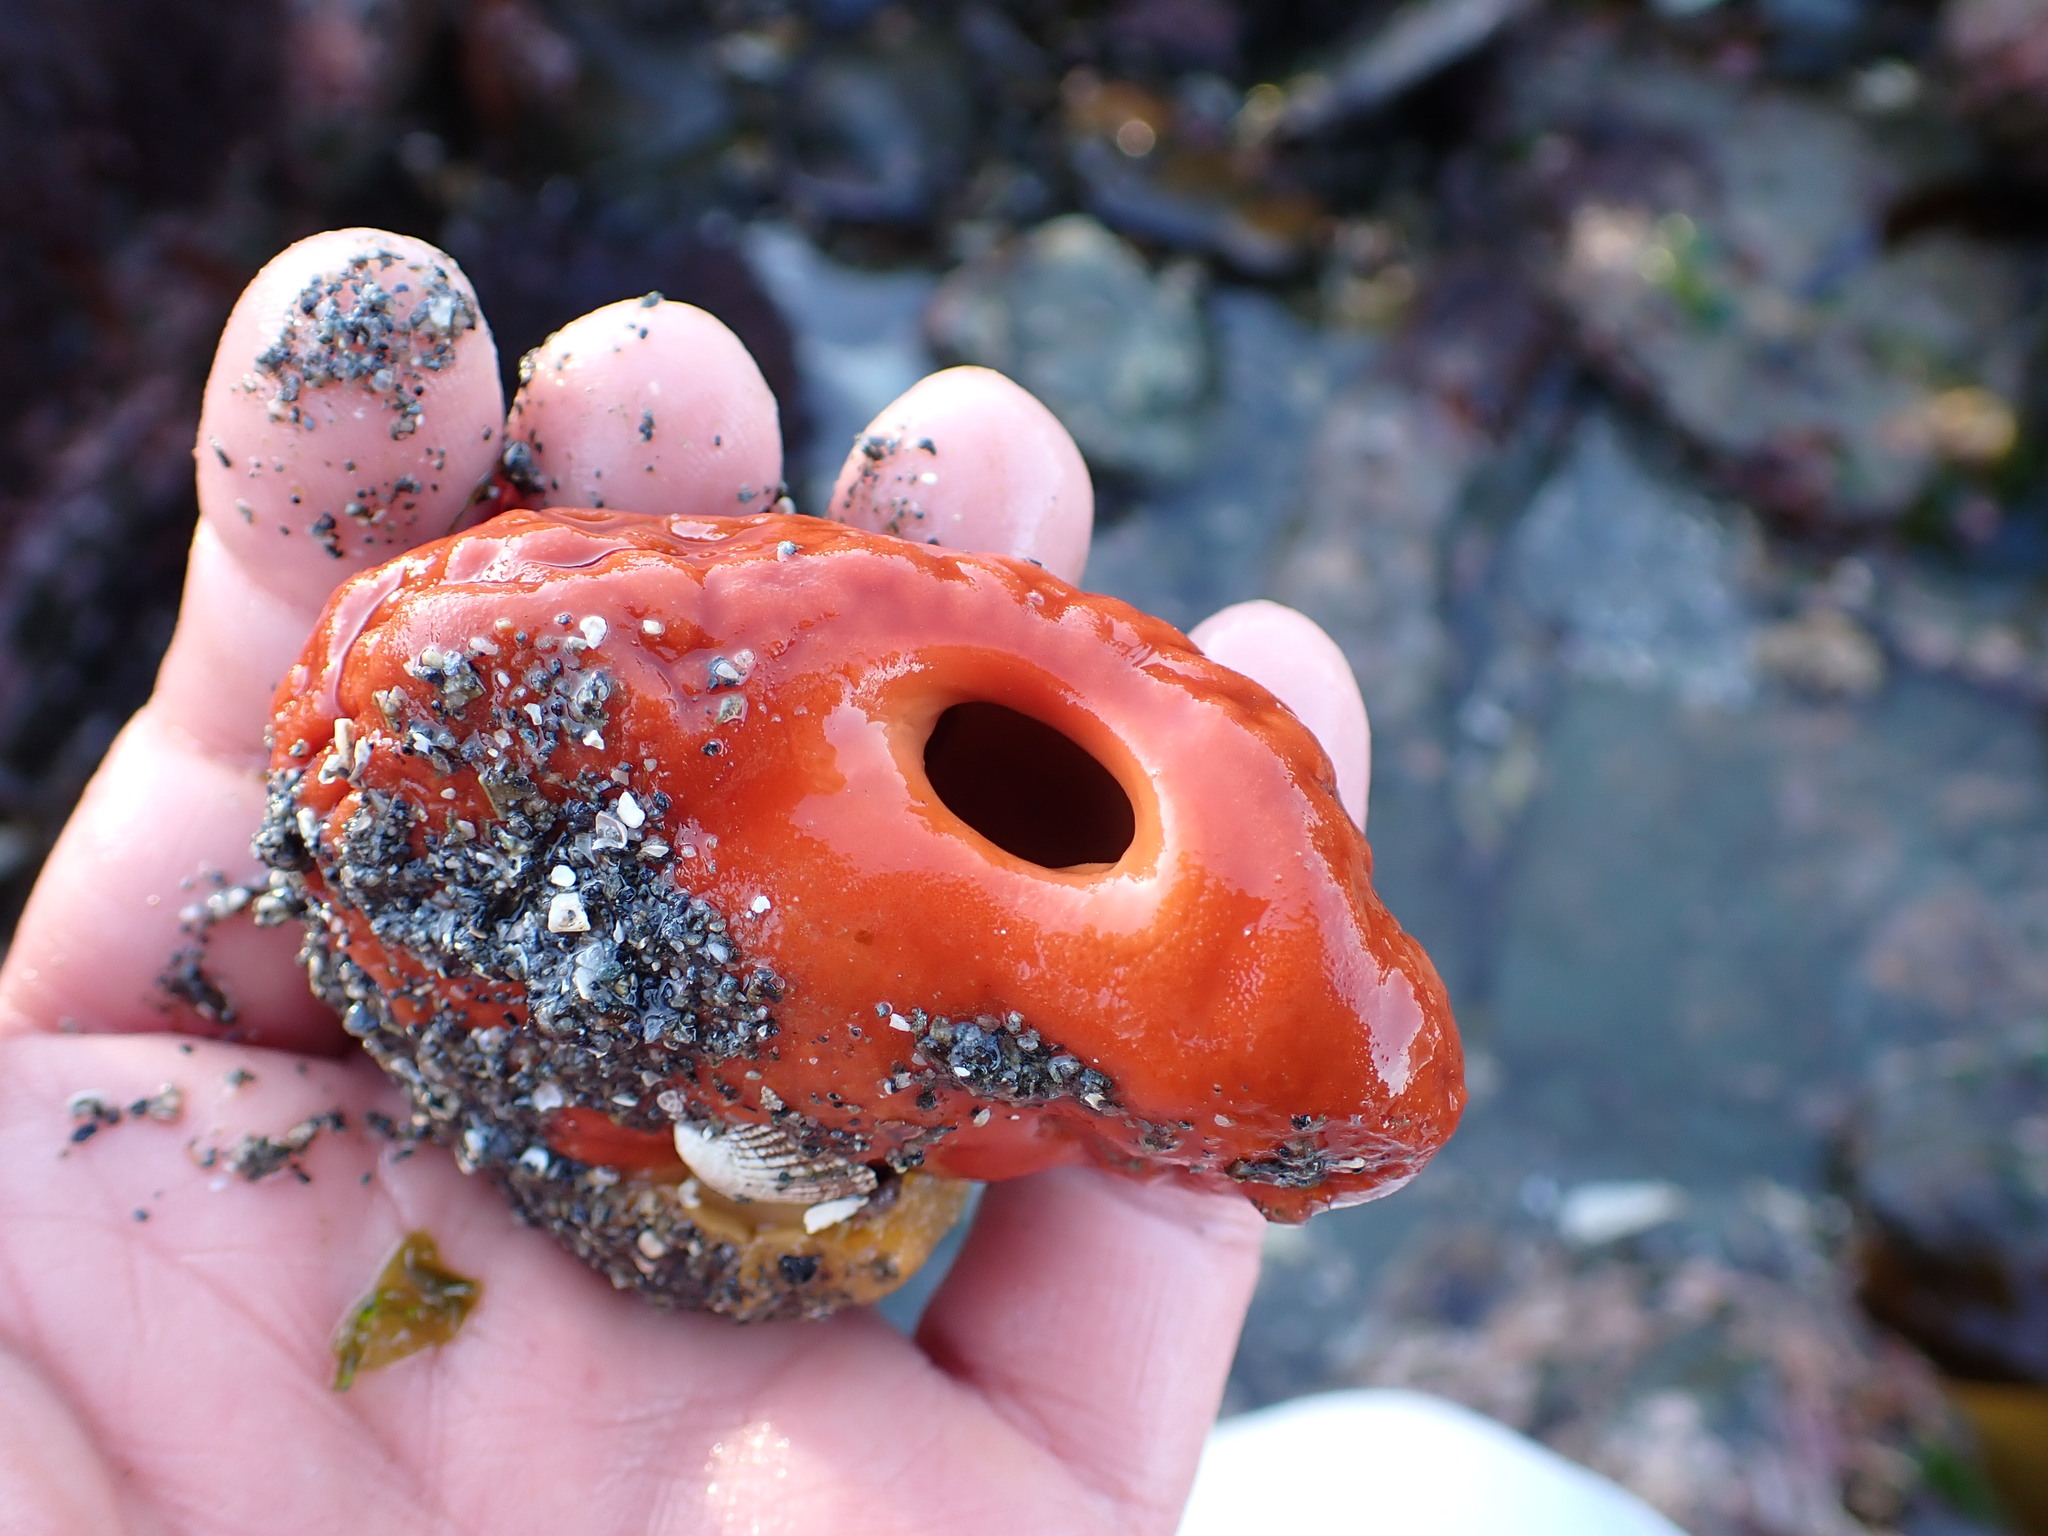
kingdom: Animalia
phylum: Porifera
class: Demospongiae
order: Suberitida
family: Suberitidae
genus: Suberites
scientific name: Suberites latus
